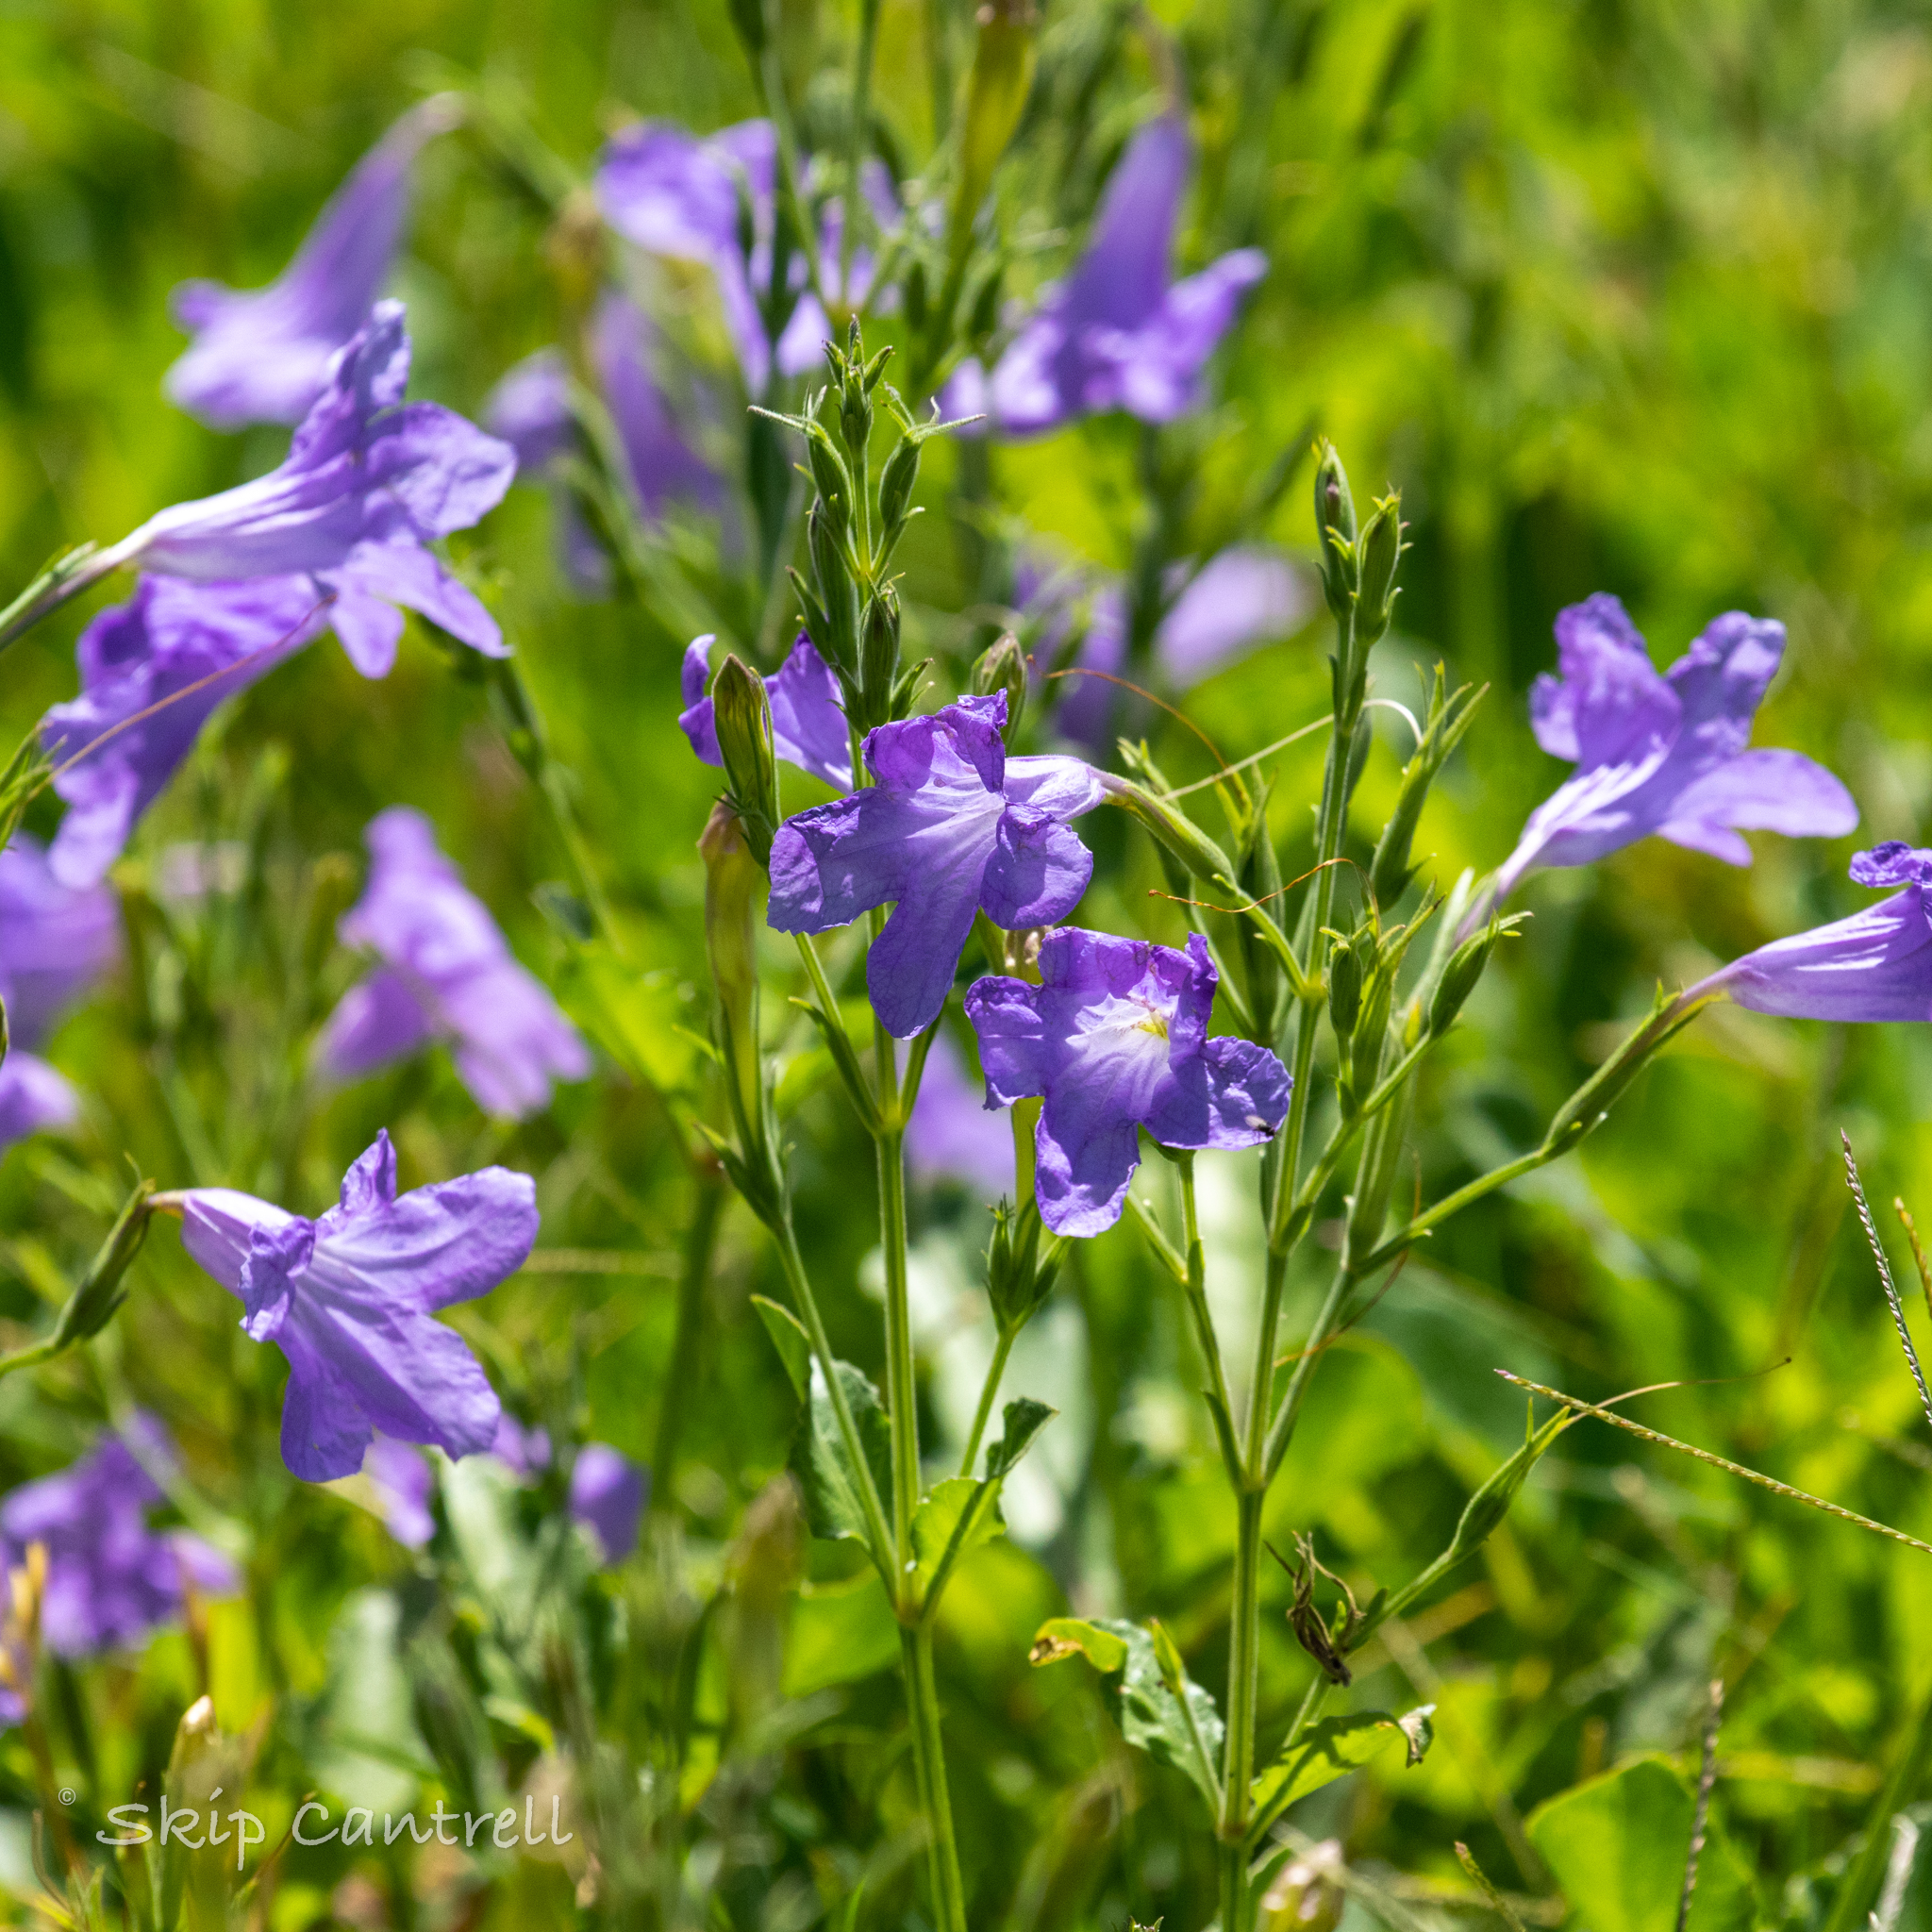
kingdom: Plantae
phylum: Tracheophyta
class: Magnoliopsida
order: Lamiales
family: Acanthaceae
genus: Ruellia
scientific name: Ruellia ciliatiflora
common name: Hairyflower wild petunia
